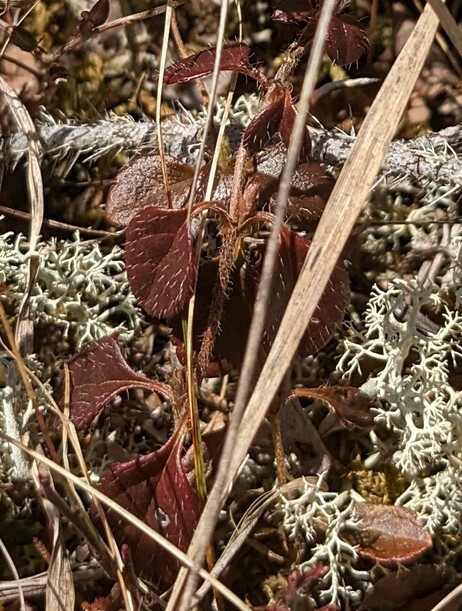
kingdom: Plantae
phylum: Tracheophyta
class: Magnoliopsida
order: Dipsacales
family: Caprifoliaceae
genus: Linnaea
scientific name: Linnaea borealis
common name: Twinflower
